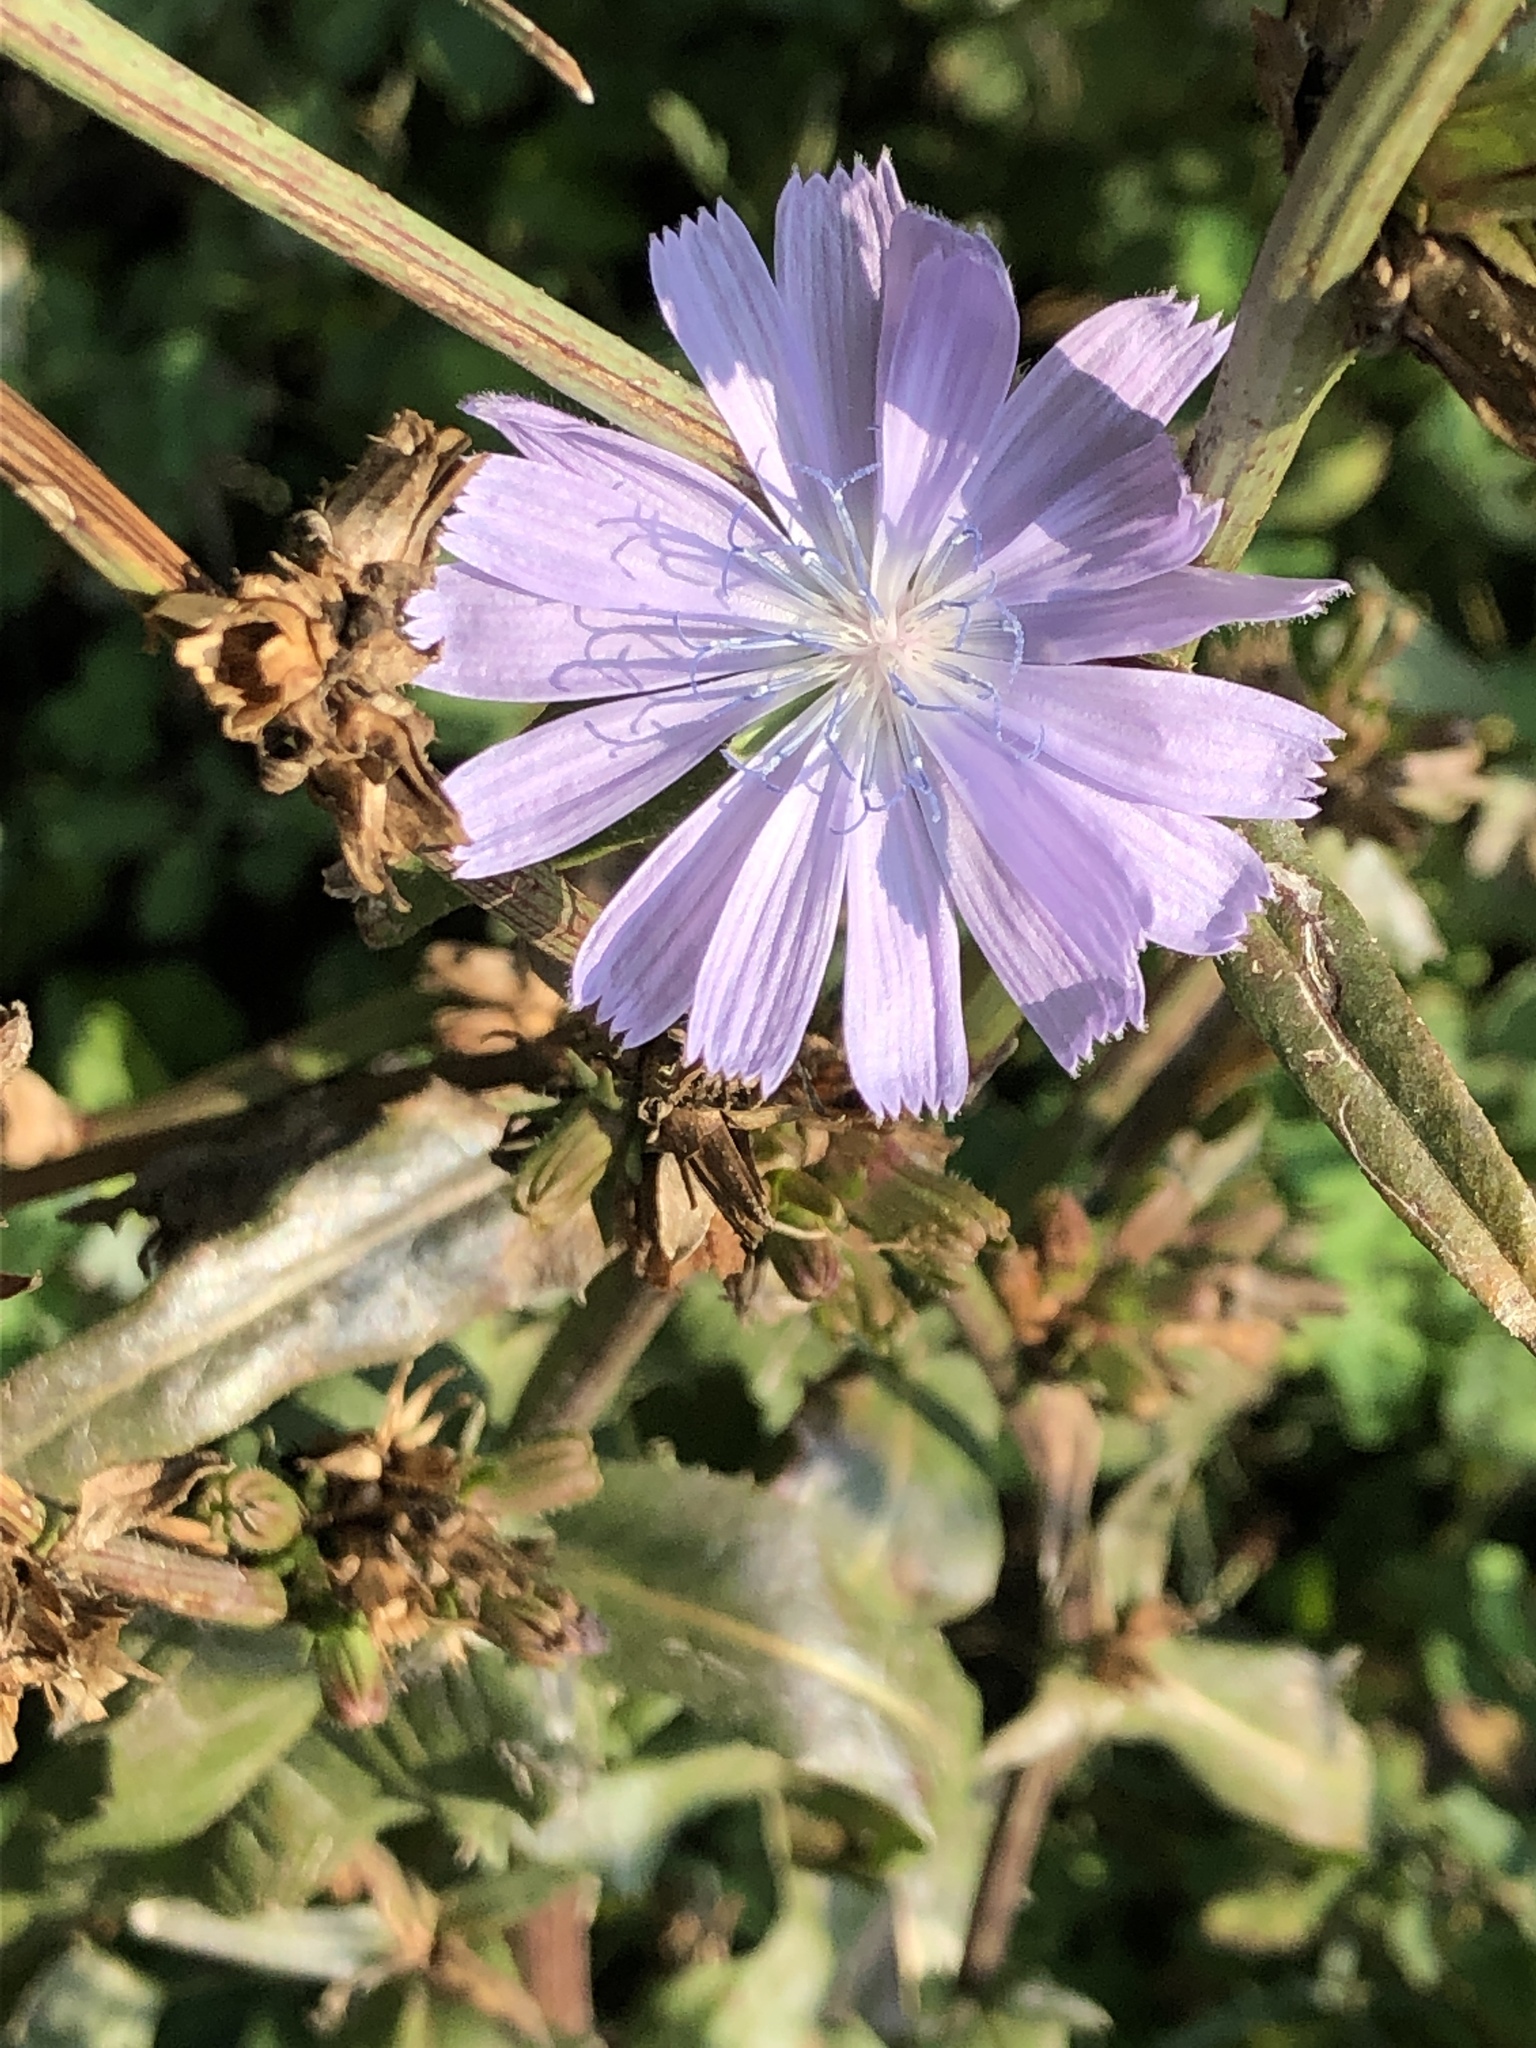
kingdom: Plantae
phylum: Tracheophyta
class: Magnoliopsida
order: Asterales
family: Asteraceae
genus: Cichorium
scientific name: Cichorium intybus
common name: Chicory
